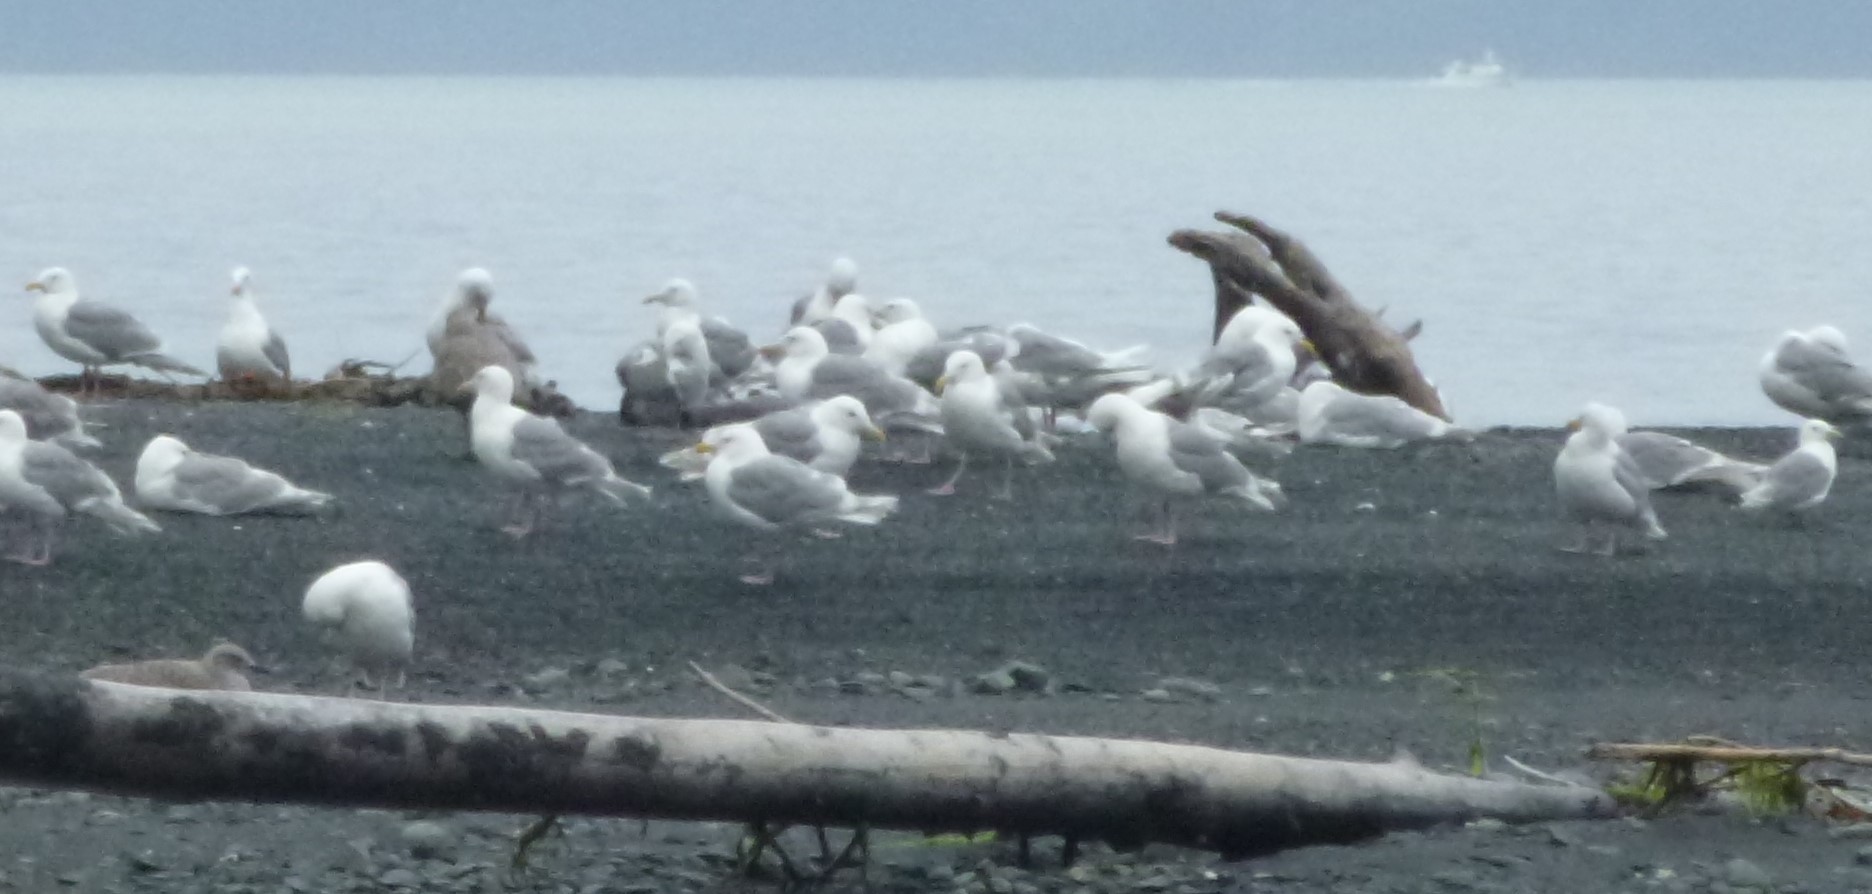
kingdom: Animalia
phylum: Chordata
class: Aves
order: Charadriiformes
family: Laridae
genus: Larus
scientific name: Larus glaucescens
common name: Glaucous-winged gull
